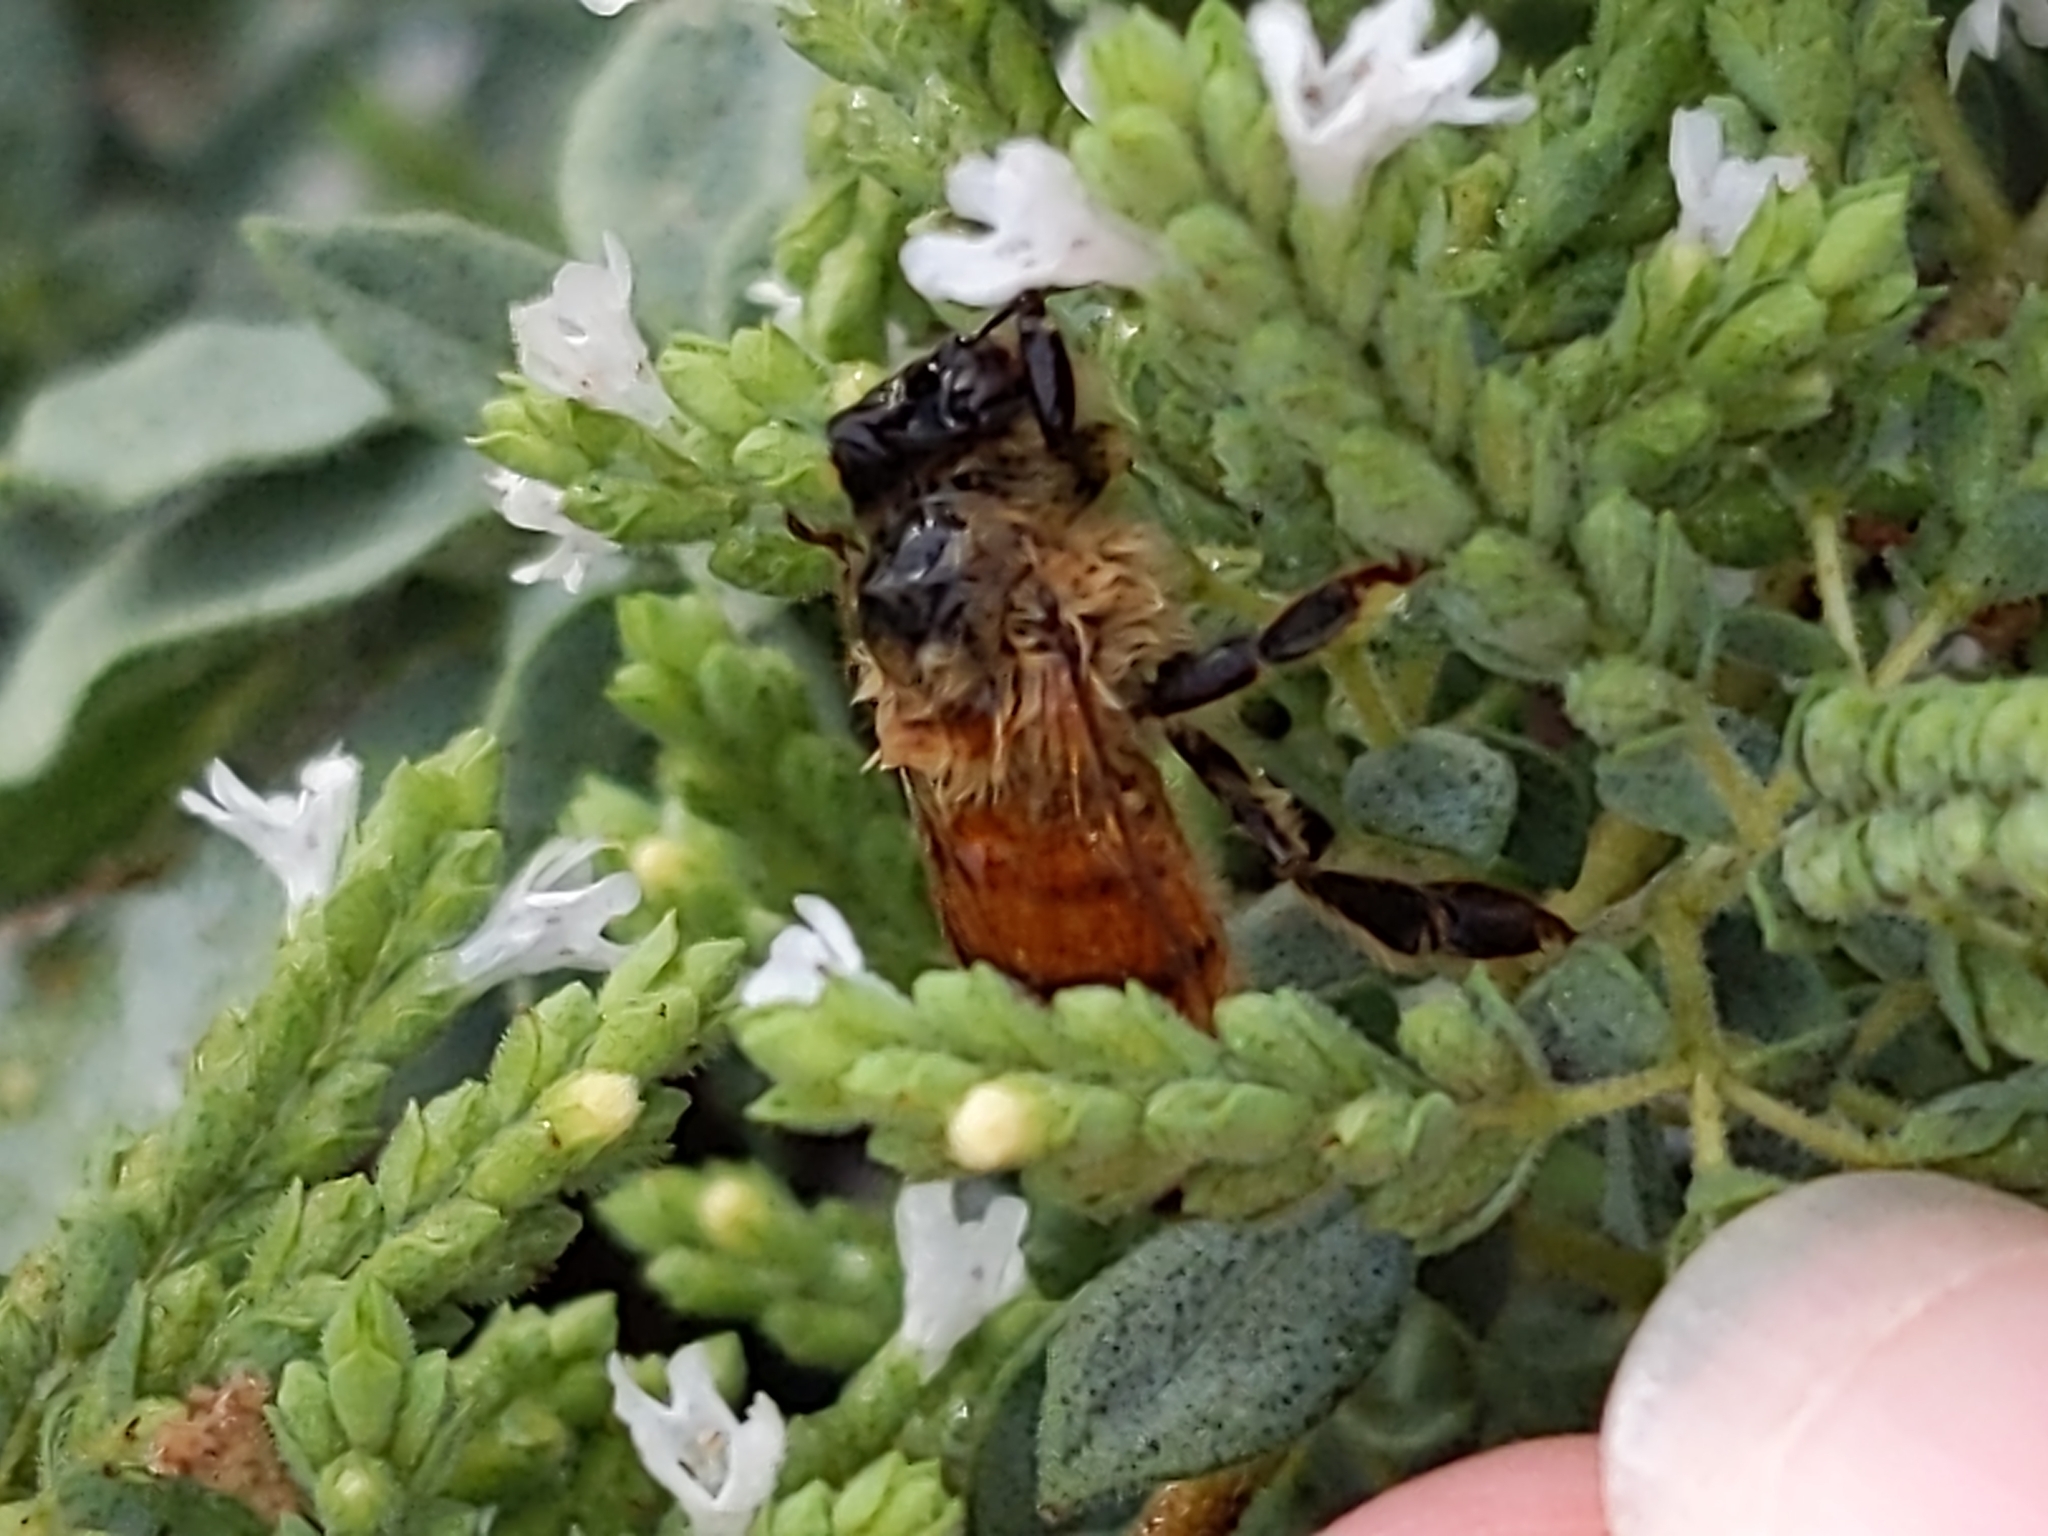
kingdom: Animalia
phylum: Arthropoda
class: Insecta
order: Hymenoptera
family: Apidae
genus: Apis
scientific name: Apis mellifera
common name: Honey bee
